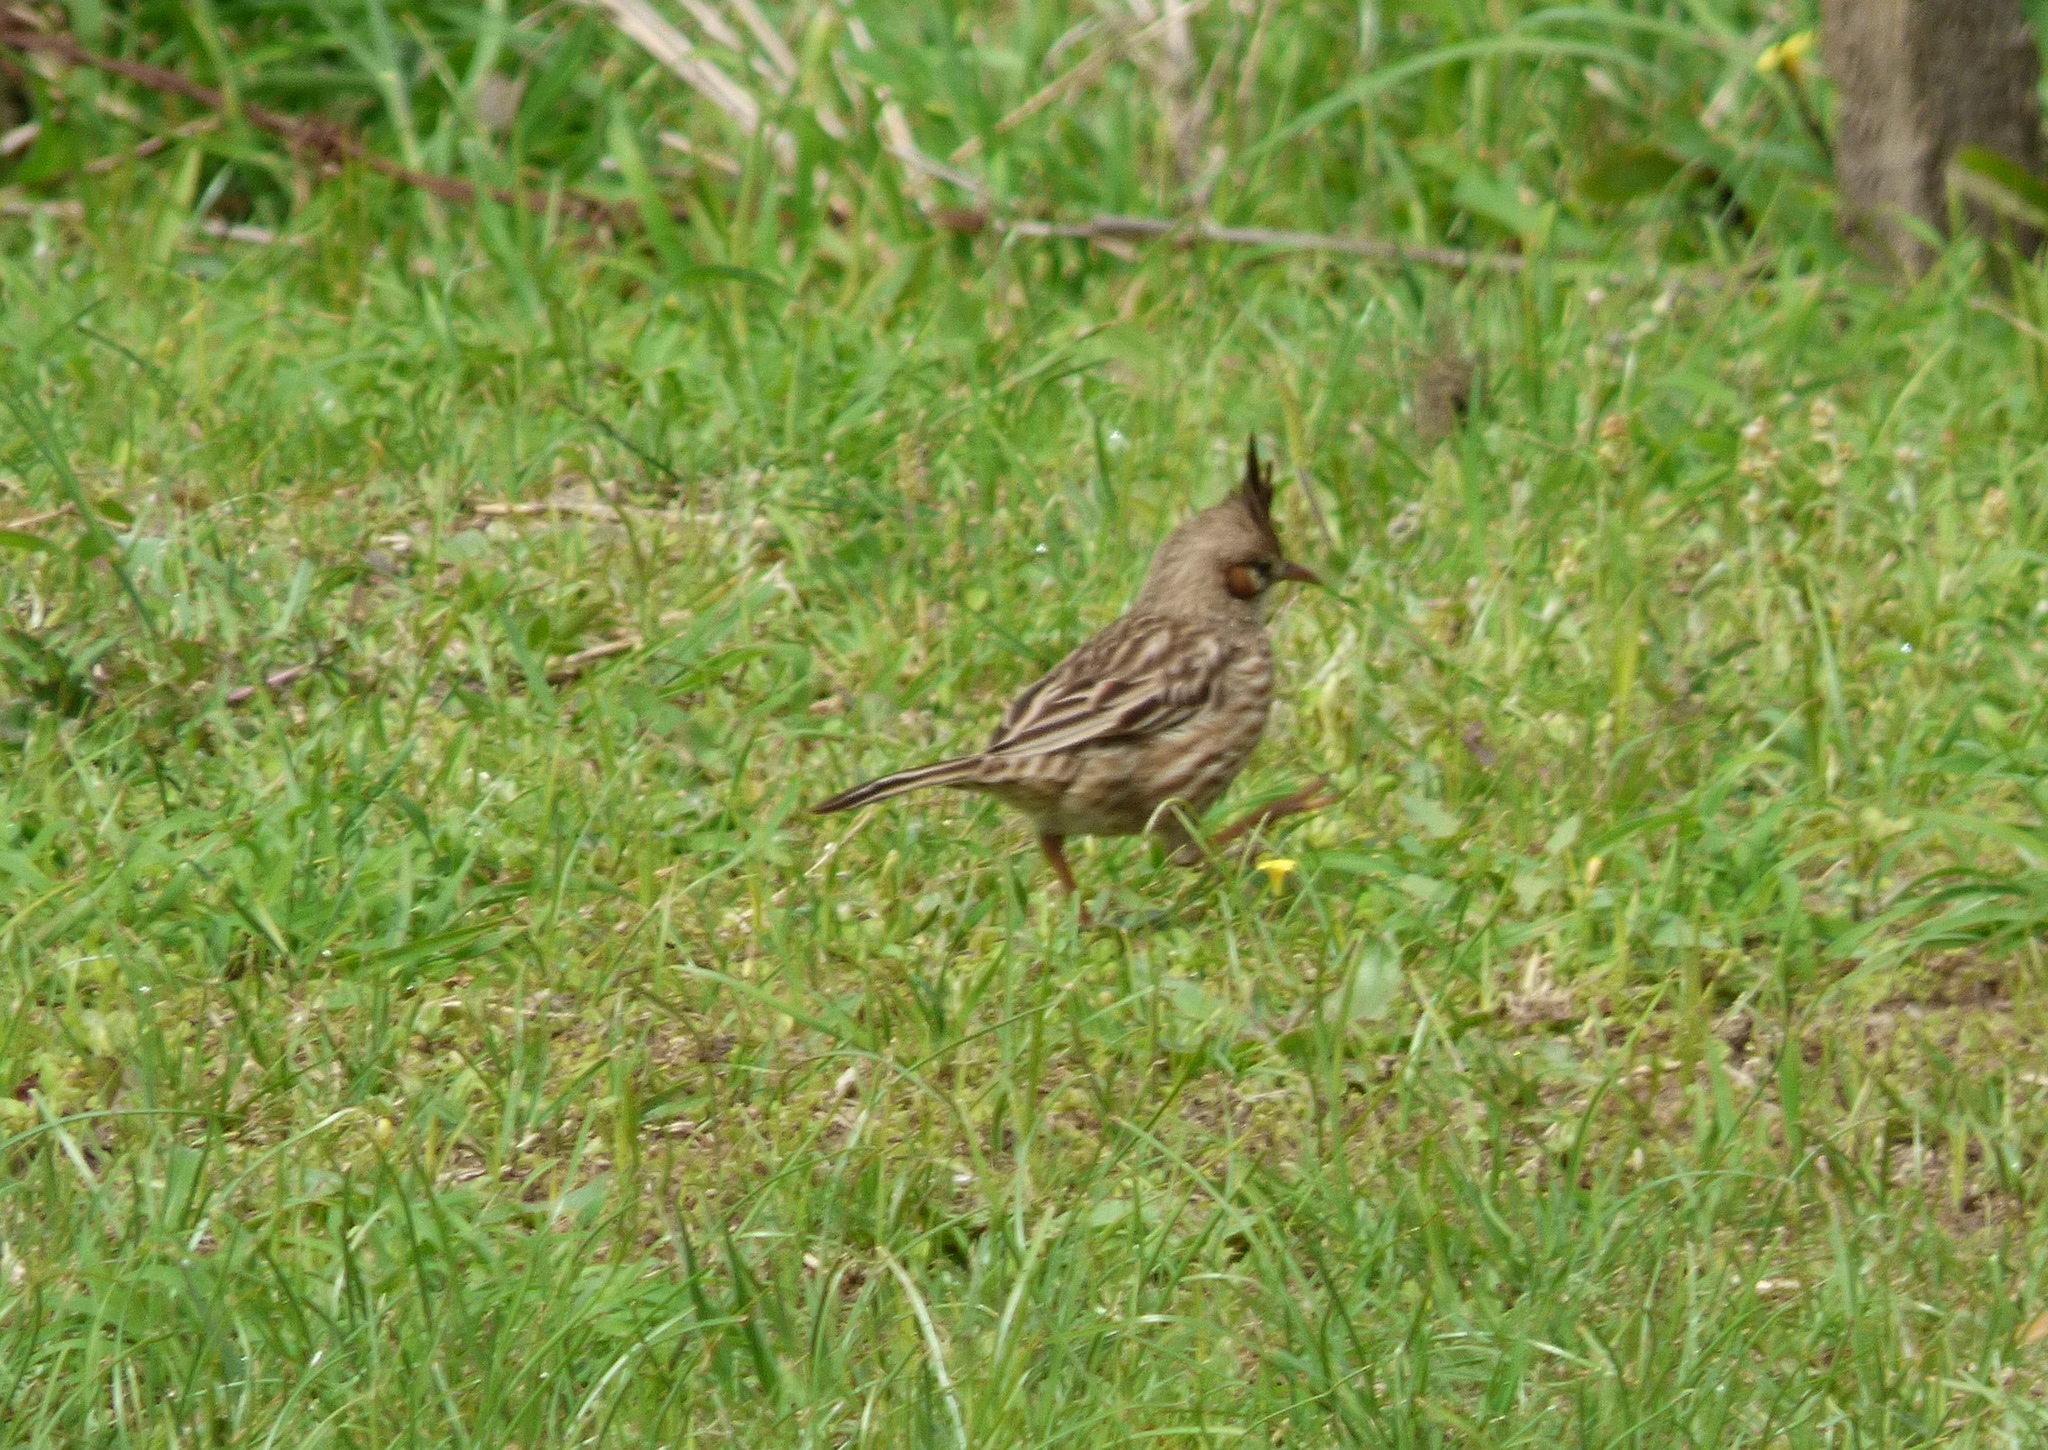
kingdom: Animalia
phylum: Chordata
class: Aves
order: Passeriformes
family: Furnariidae
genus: Coryphistera
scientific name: Coryphistera alaudina
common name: Lark-like brushrunner
